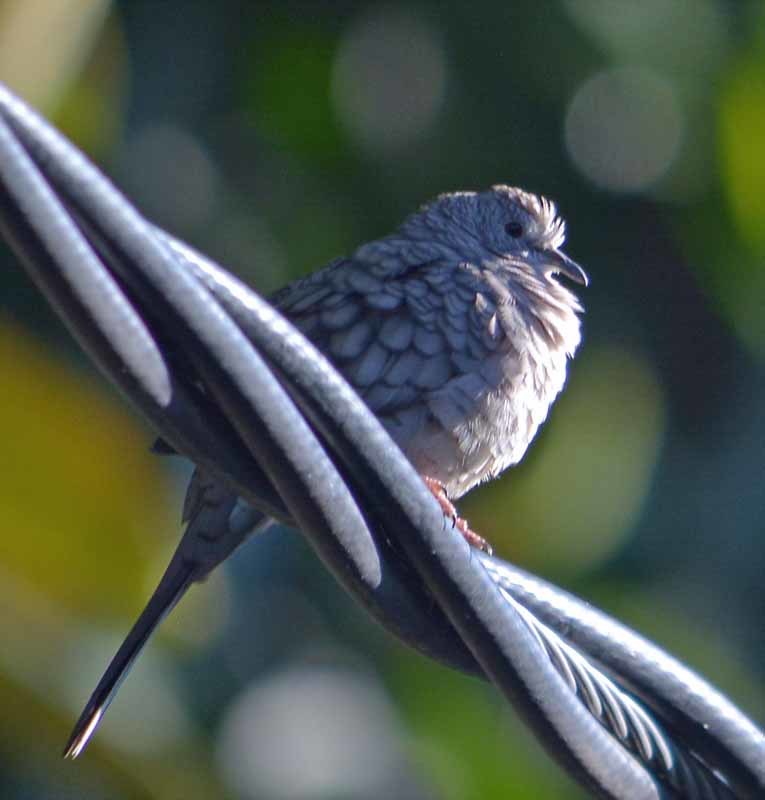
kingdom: Animalia
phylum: Chordata
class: Aves
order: Columbiformes
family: Columbidae
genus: Columbina
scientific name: Columbina inca
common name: Inca dove
